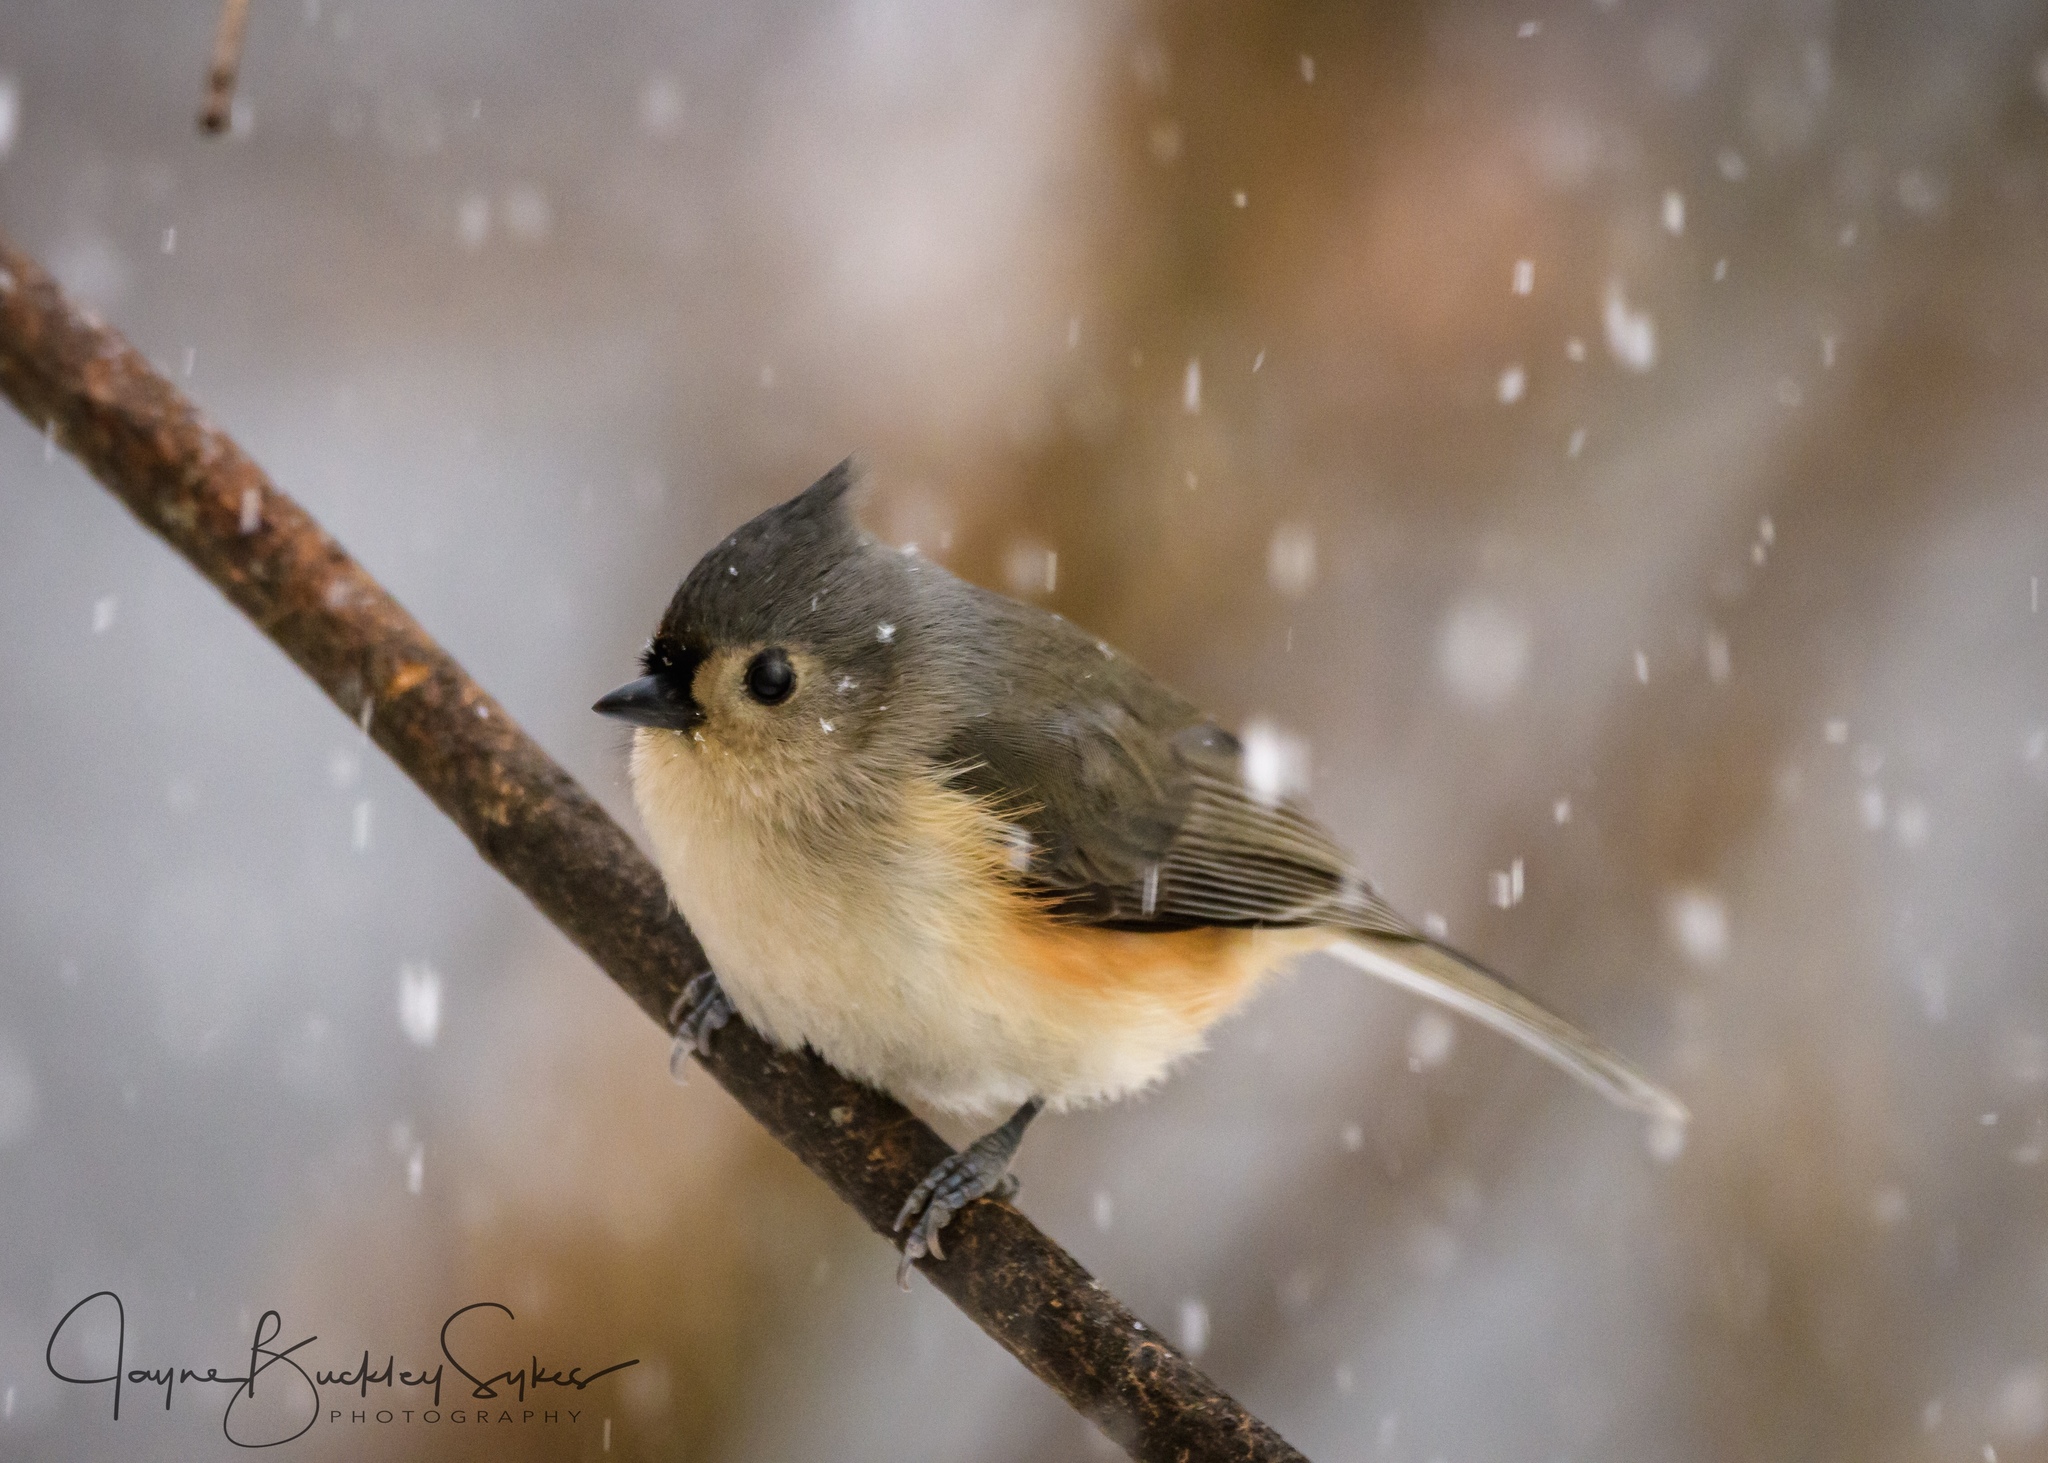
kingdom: Animalia
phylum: Chordata
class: Aves
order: Passeriformes
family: Paridae
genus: Baeolophus
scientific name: Baeolophus bicolor
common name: Tufted titmouse
